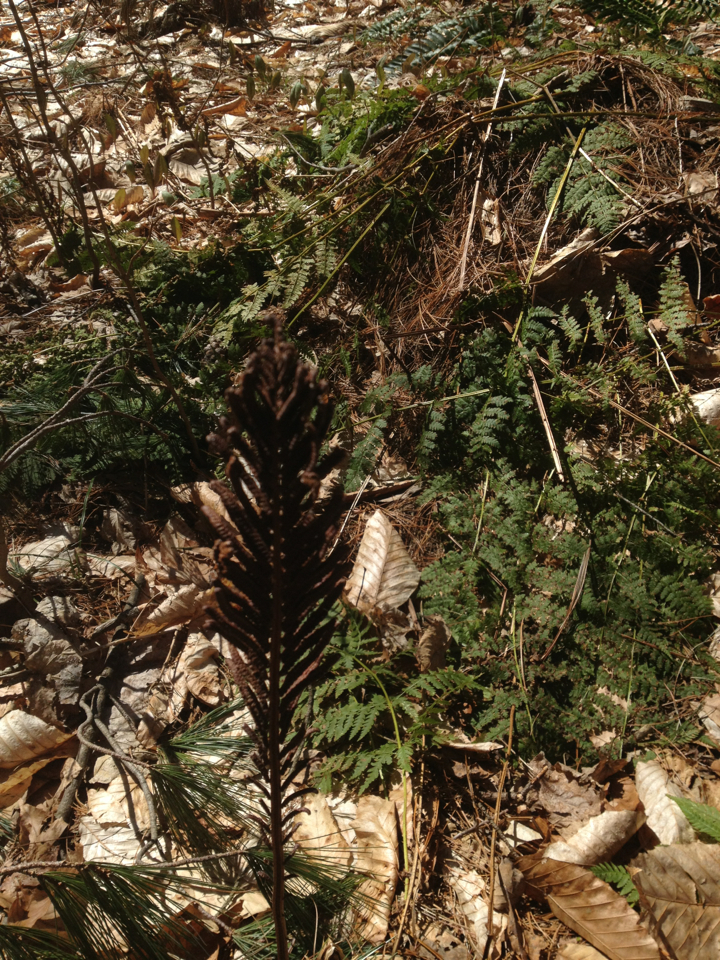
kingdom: Plantae
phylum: Tracheophyta
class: Polypodiopsida
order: Polypodiales
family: Onocleaceae
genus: Matteuccia
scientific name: Matteuccia struthiopteris
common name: Ostrich fern
